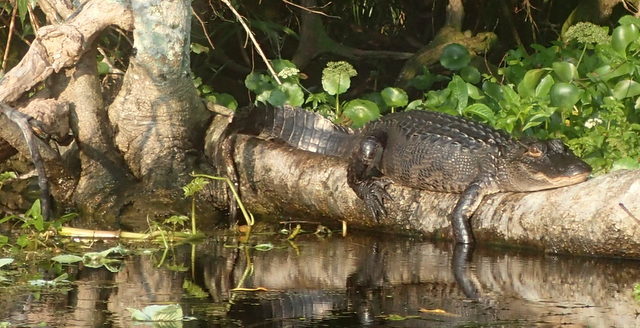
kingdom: Animalia
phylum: Chordata
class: Crocodylia
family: Alligatoridae
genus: Alligator
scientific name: Alligator mississippiensis
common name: American alligator
